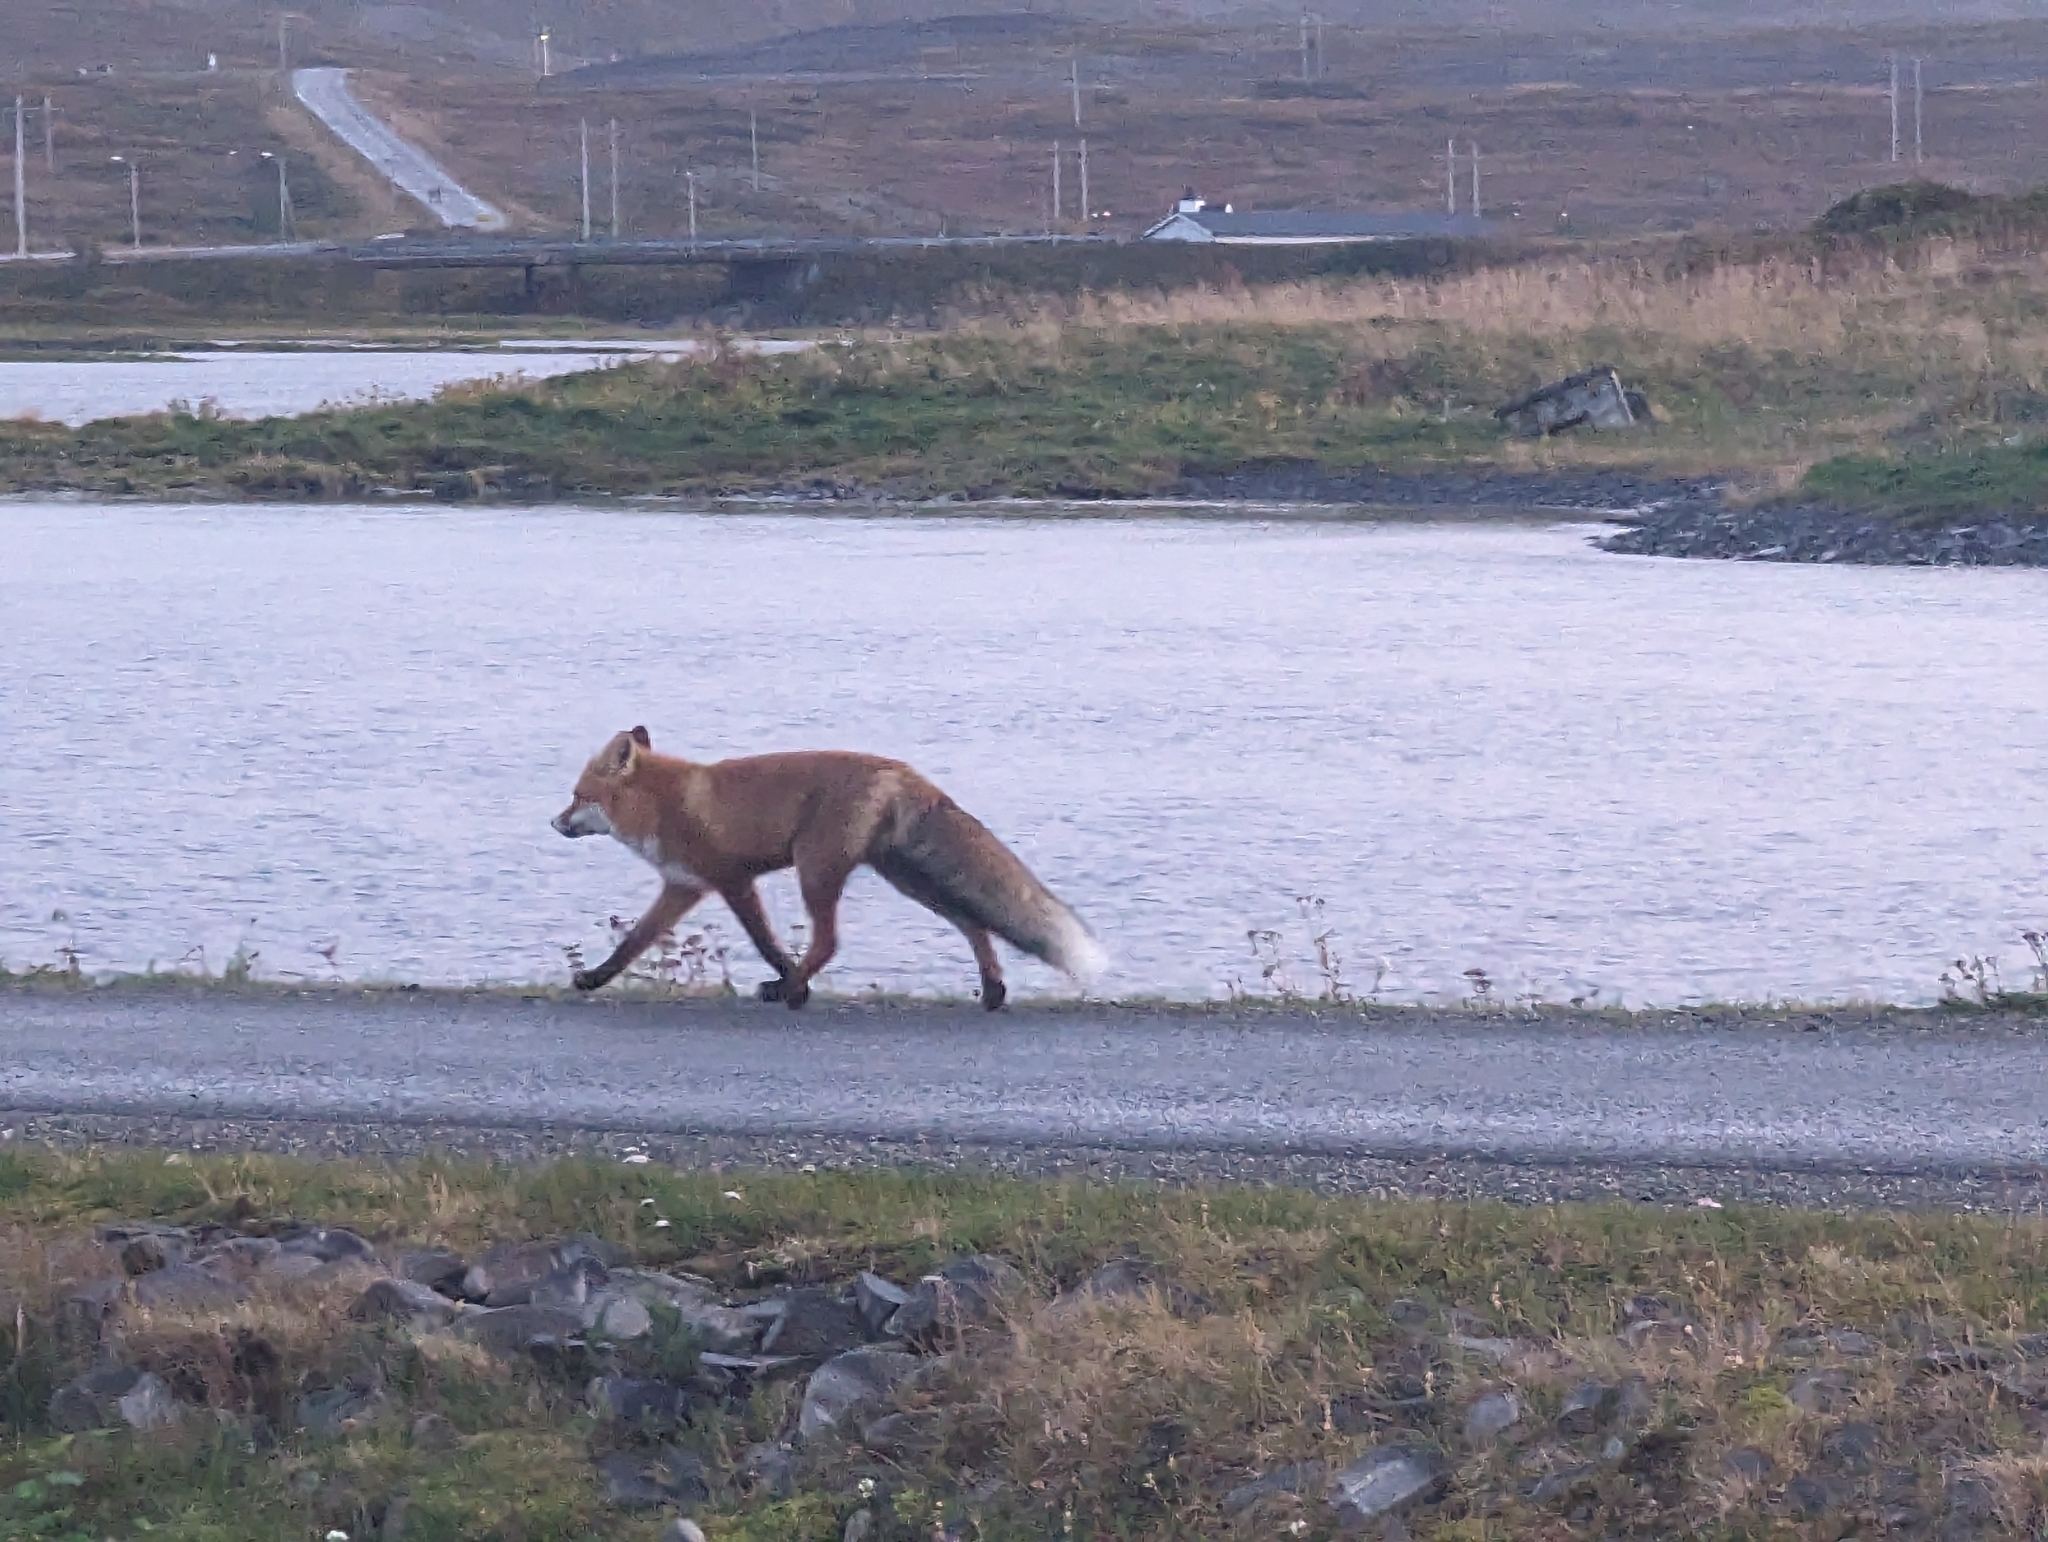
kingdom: Animalia
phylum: Chordata
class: Mammalia
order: Carnivora
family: Canidae
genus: Vulpes
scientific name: Vulpes vulpes
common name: Red fox
